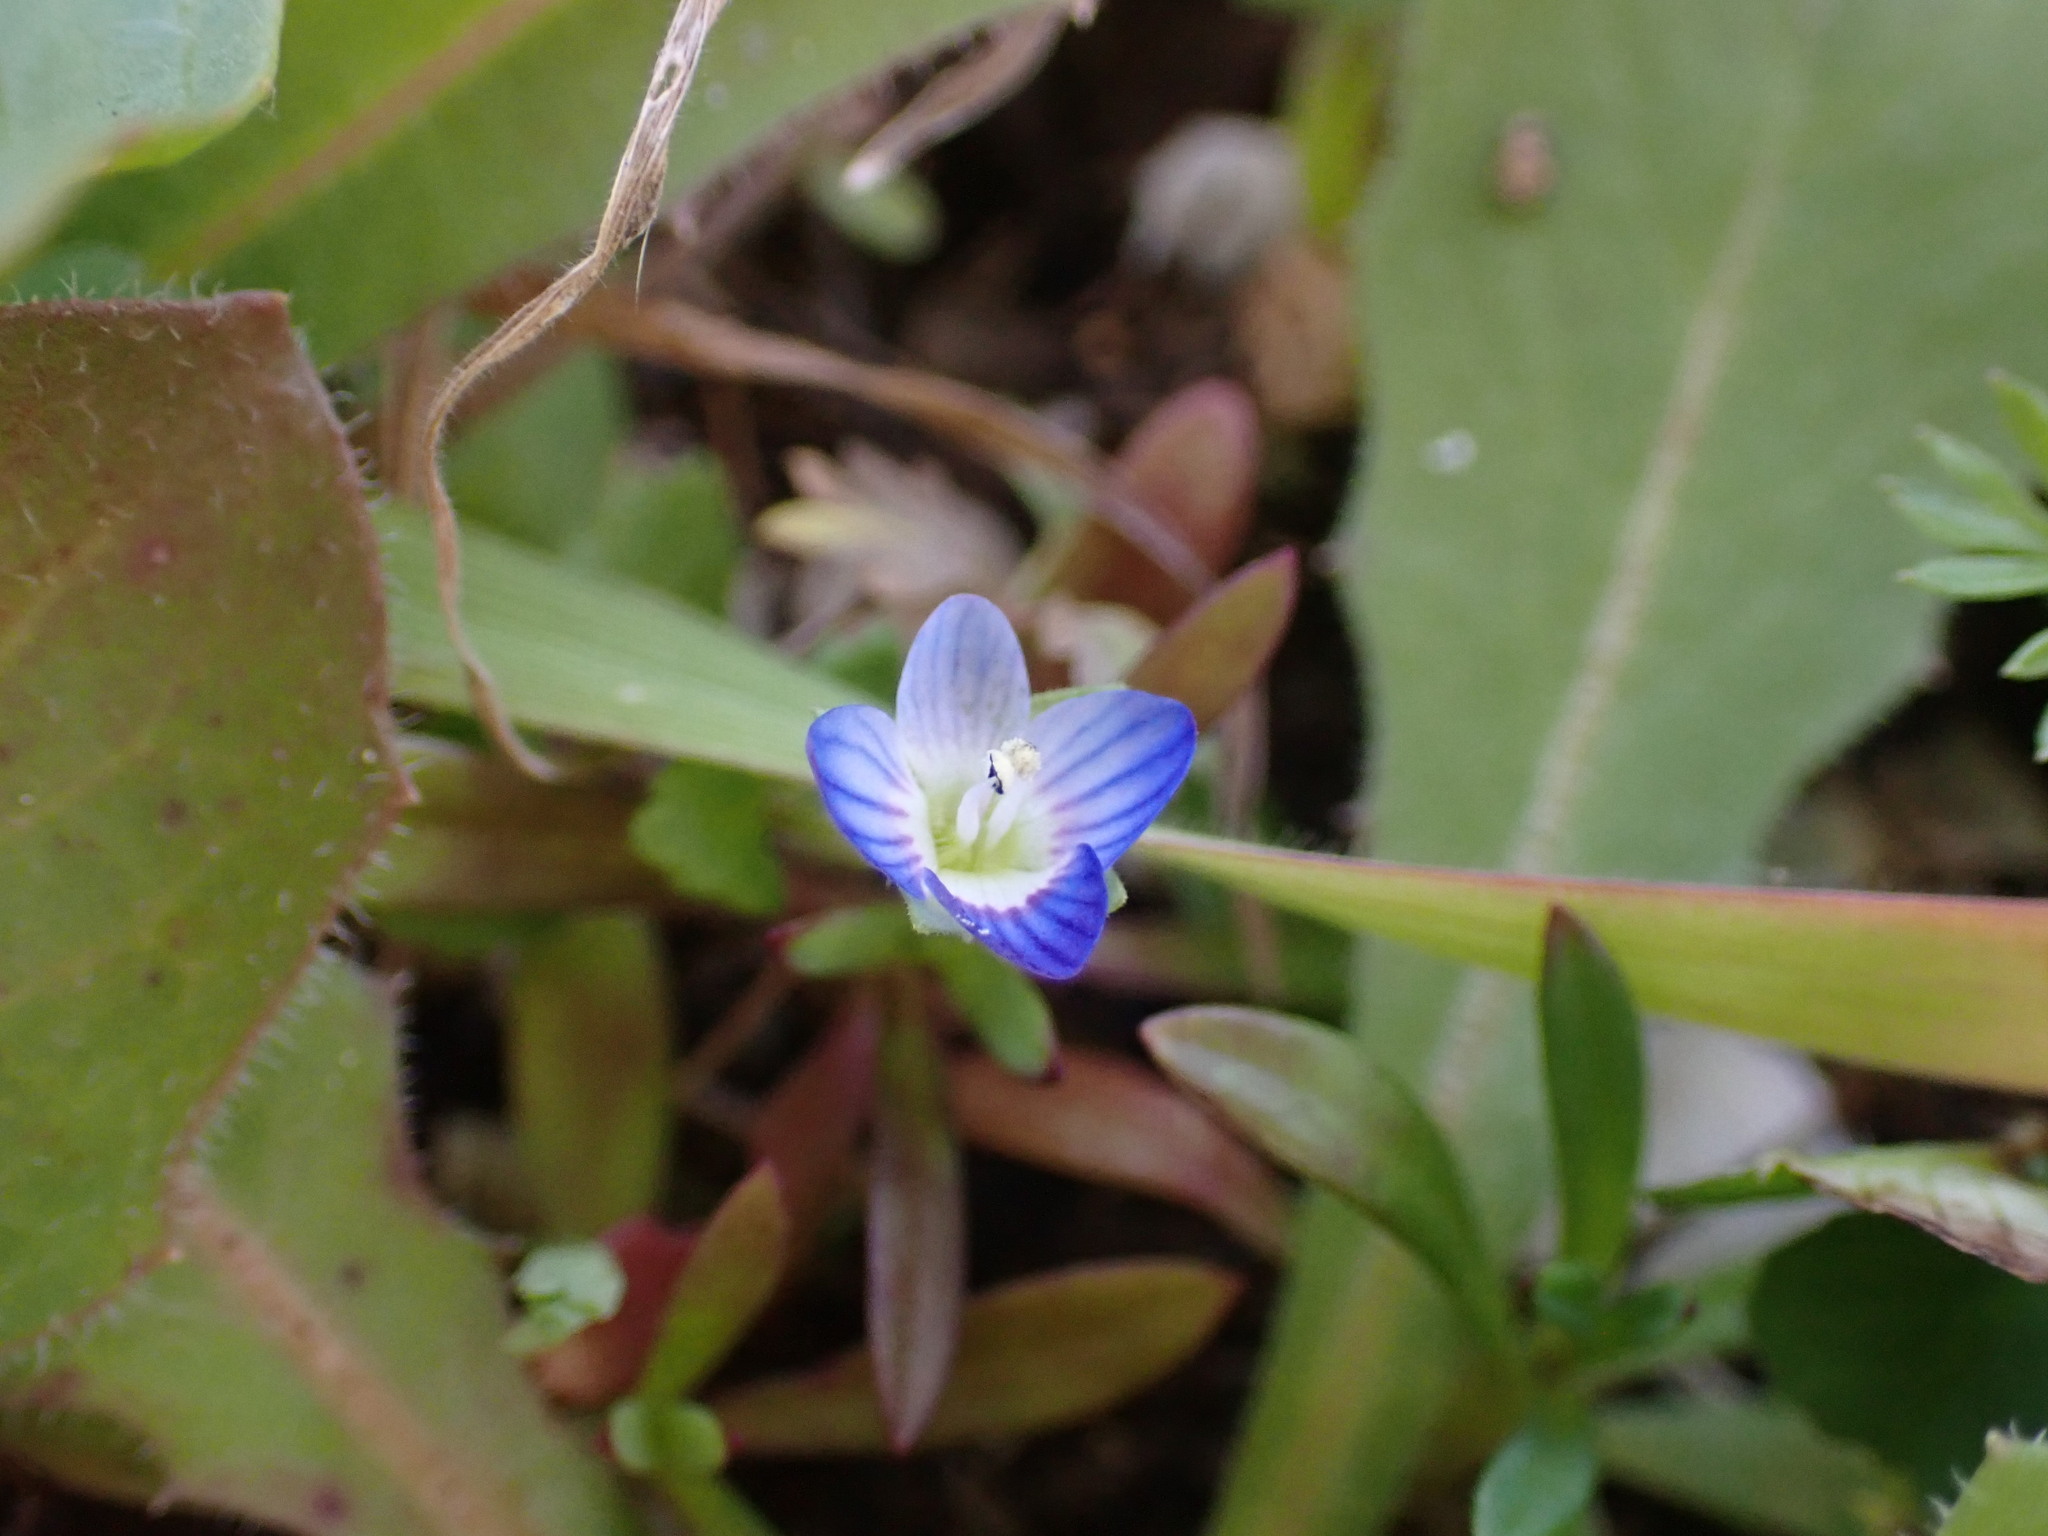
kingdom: Plantae
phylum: Tracheophyta
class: Magnoliopsida
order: Lamiales
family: Plantaginaceae
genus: Veronica
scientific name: Veronica persica
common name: Common field-speedwell
